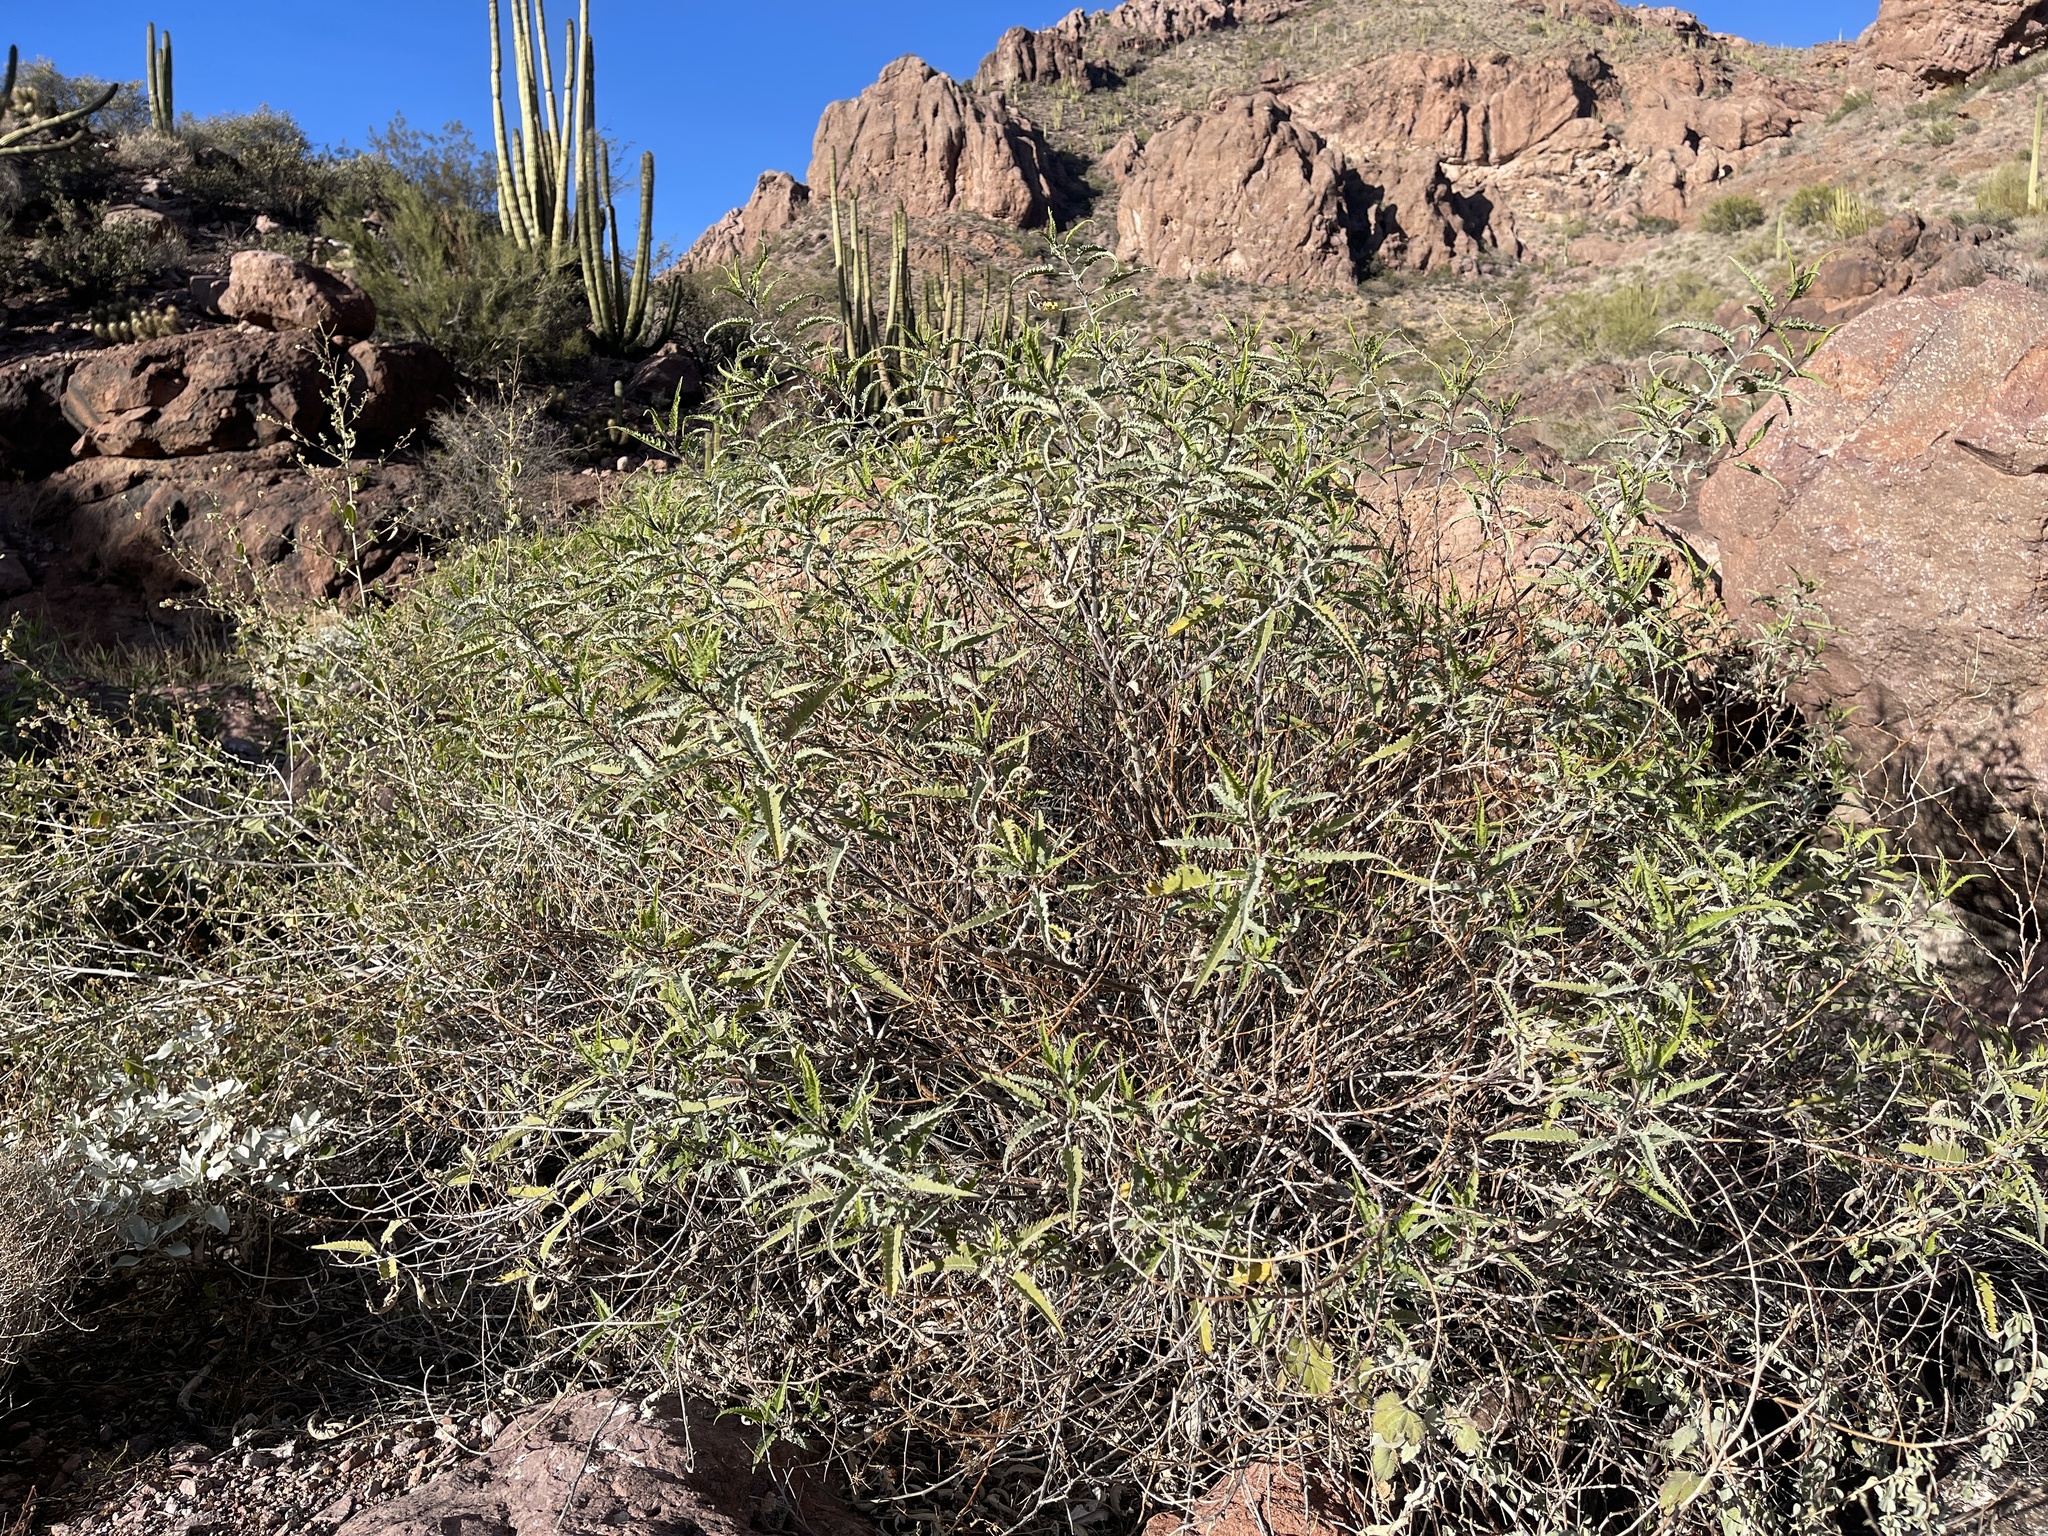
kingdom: Plantae
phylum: Tracheophyta
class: Magnoliopsida
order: Asterales
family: Asteraceae
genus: Ambrosia
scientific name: Ambrosia ambrosioides
